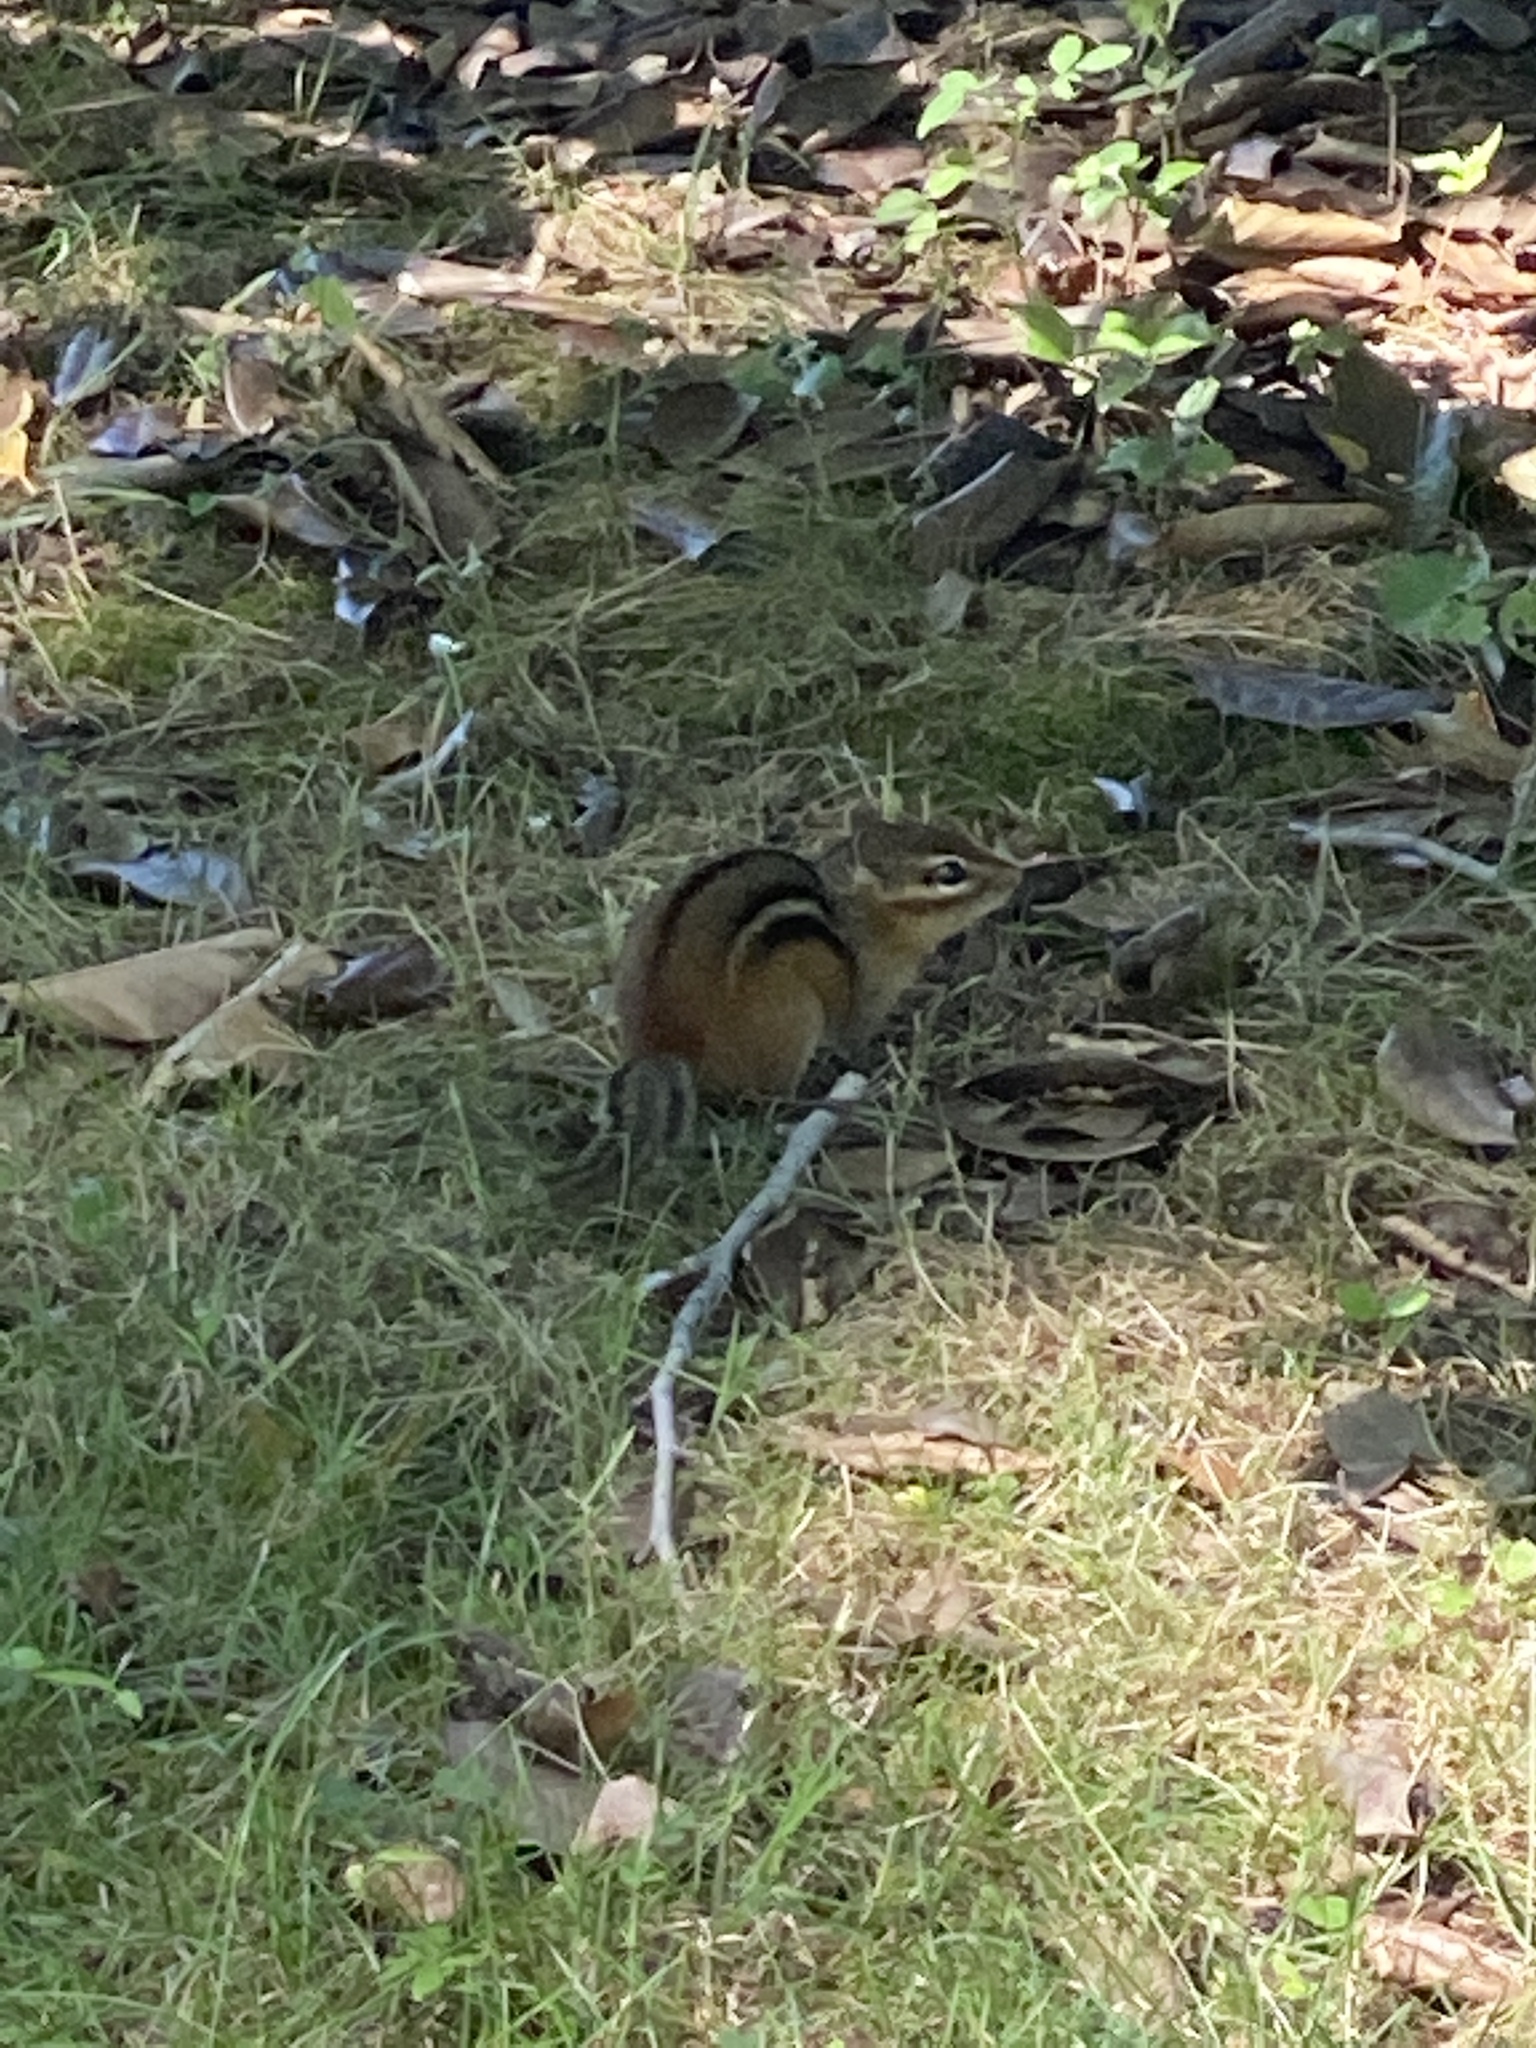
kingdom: Animalia
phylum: Chordata
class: Mammalia
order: Rodentia
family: Sciuridae
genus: Tamias
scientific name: Tamias striatus
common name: Eastern chipmunk
